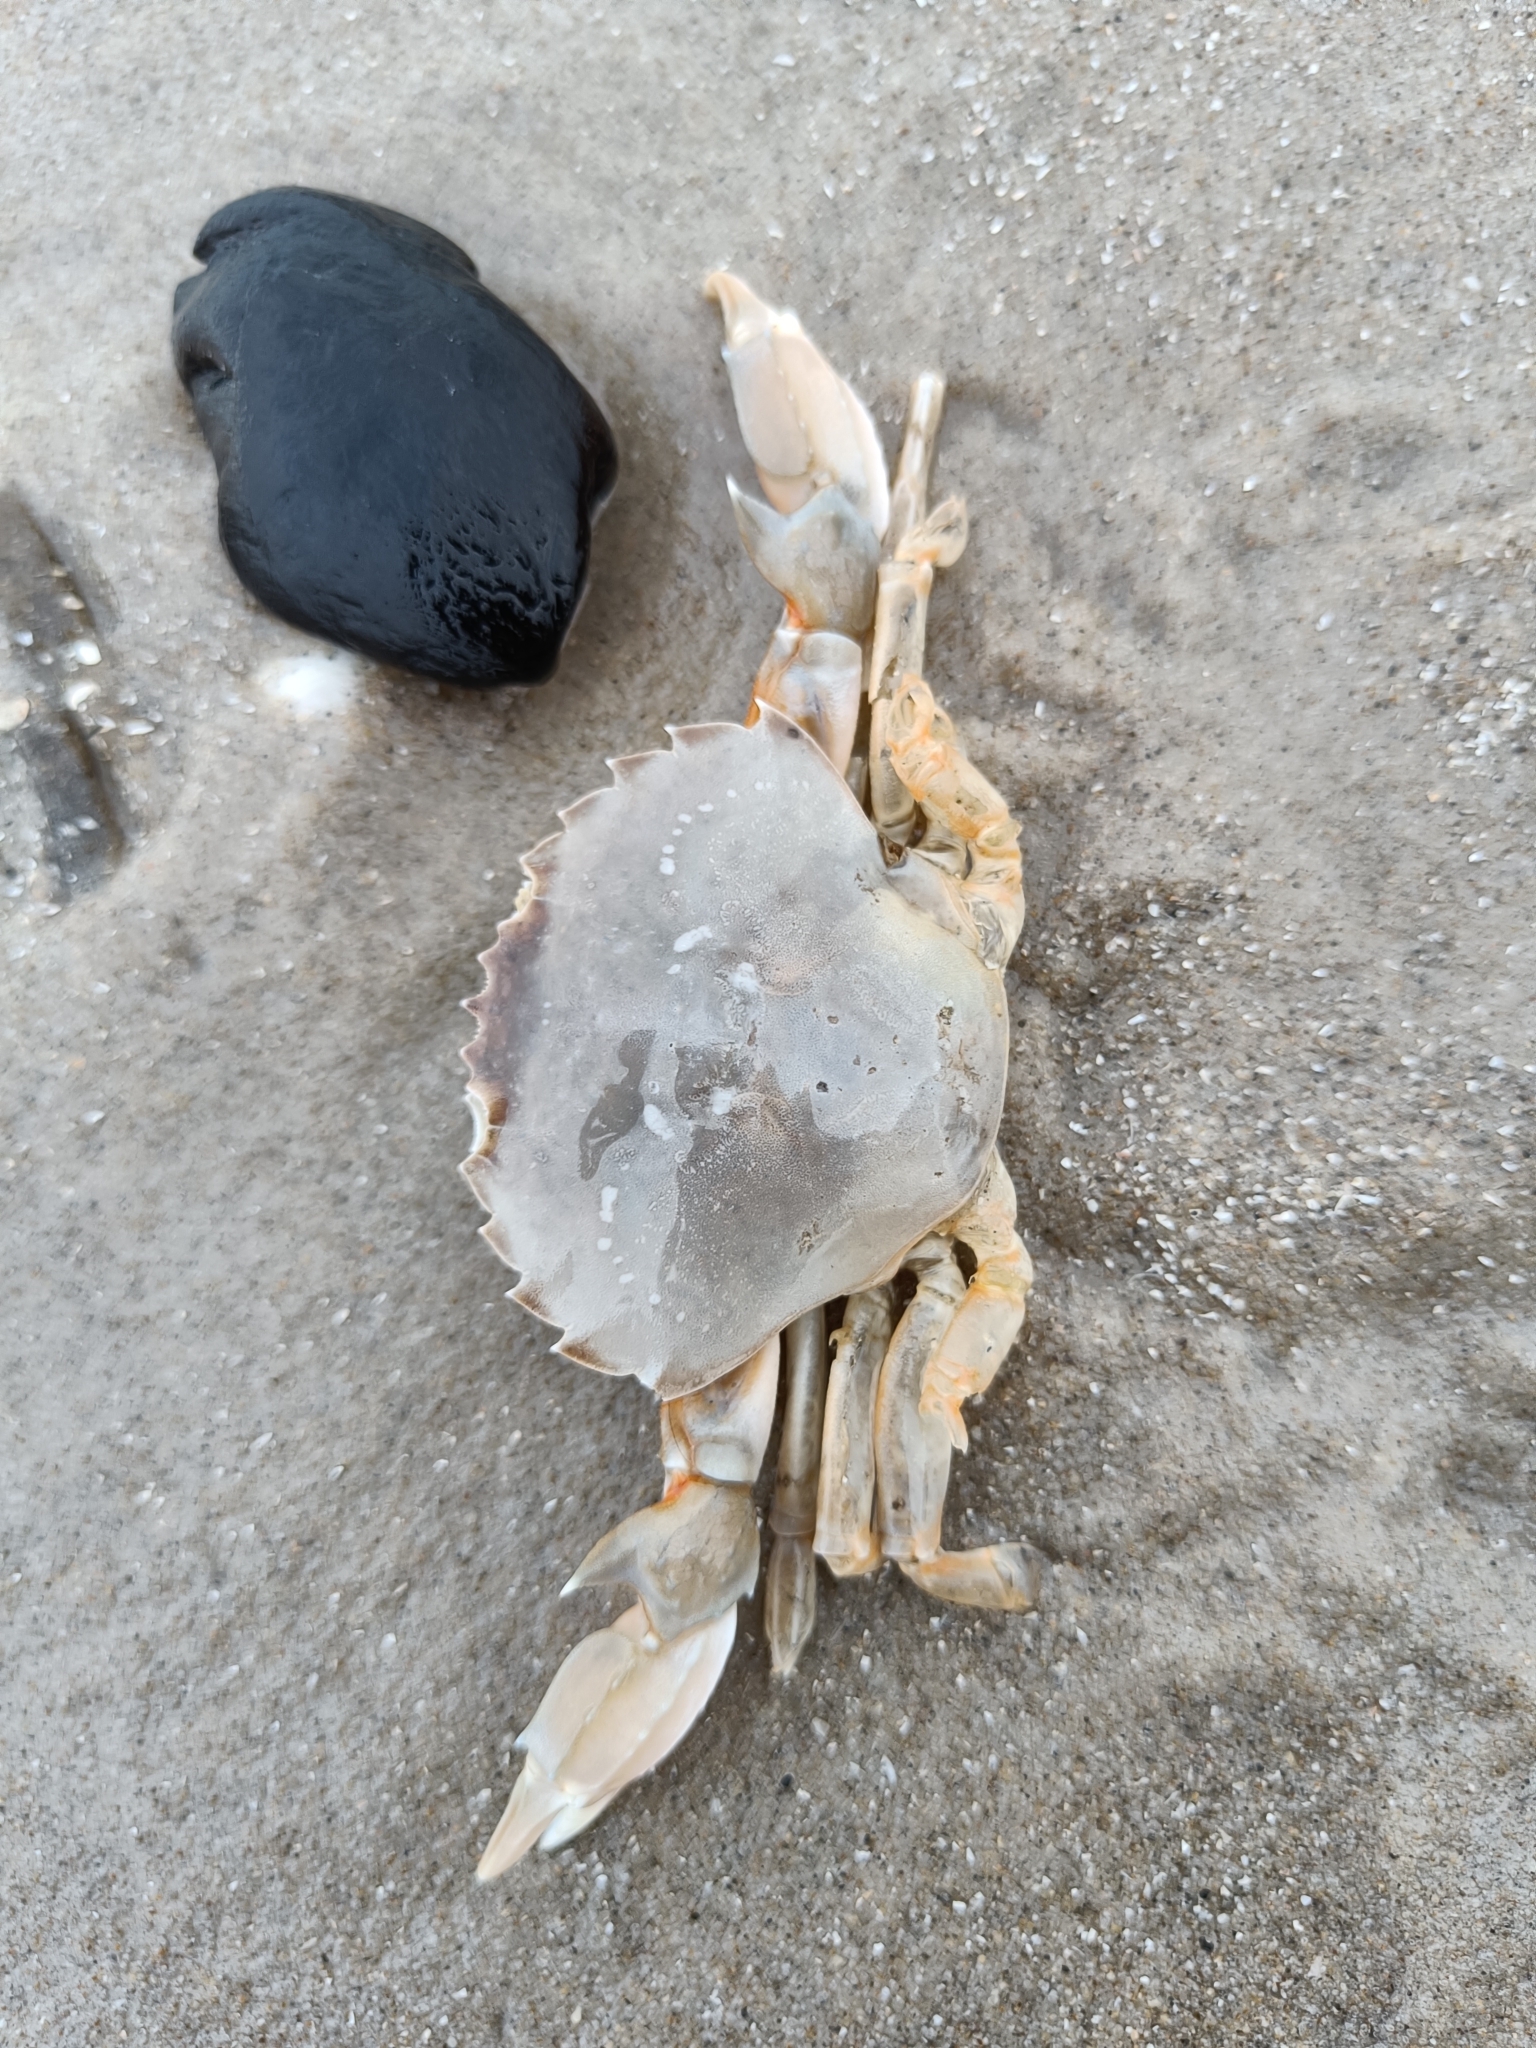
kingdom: Animalia
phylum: Arthropoda
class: Malacostraca
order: Decapoda
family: Polybiidae
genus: Liocarcinus
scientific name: Liocarcinus holsatus
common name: Flying crab
